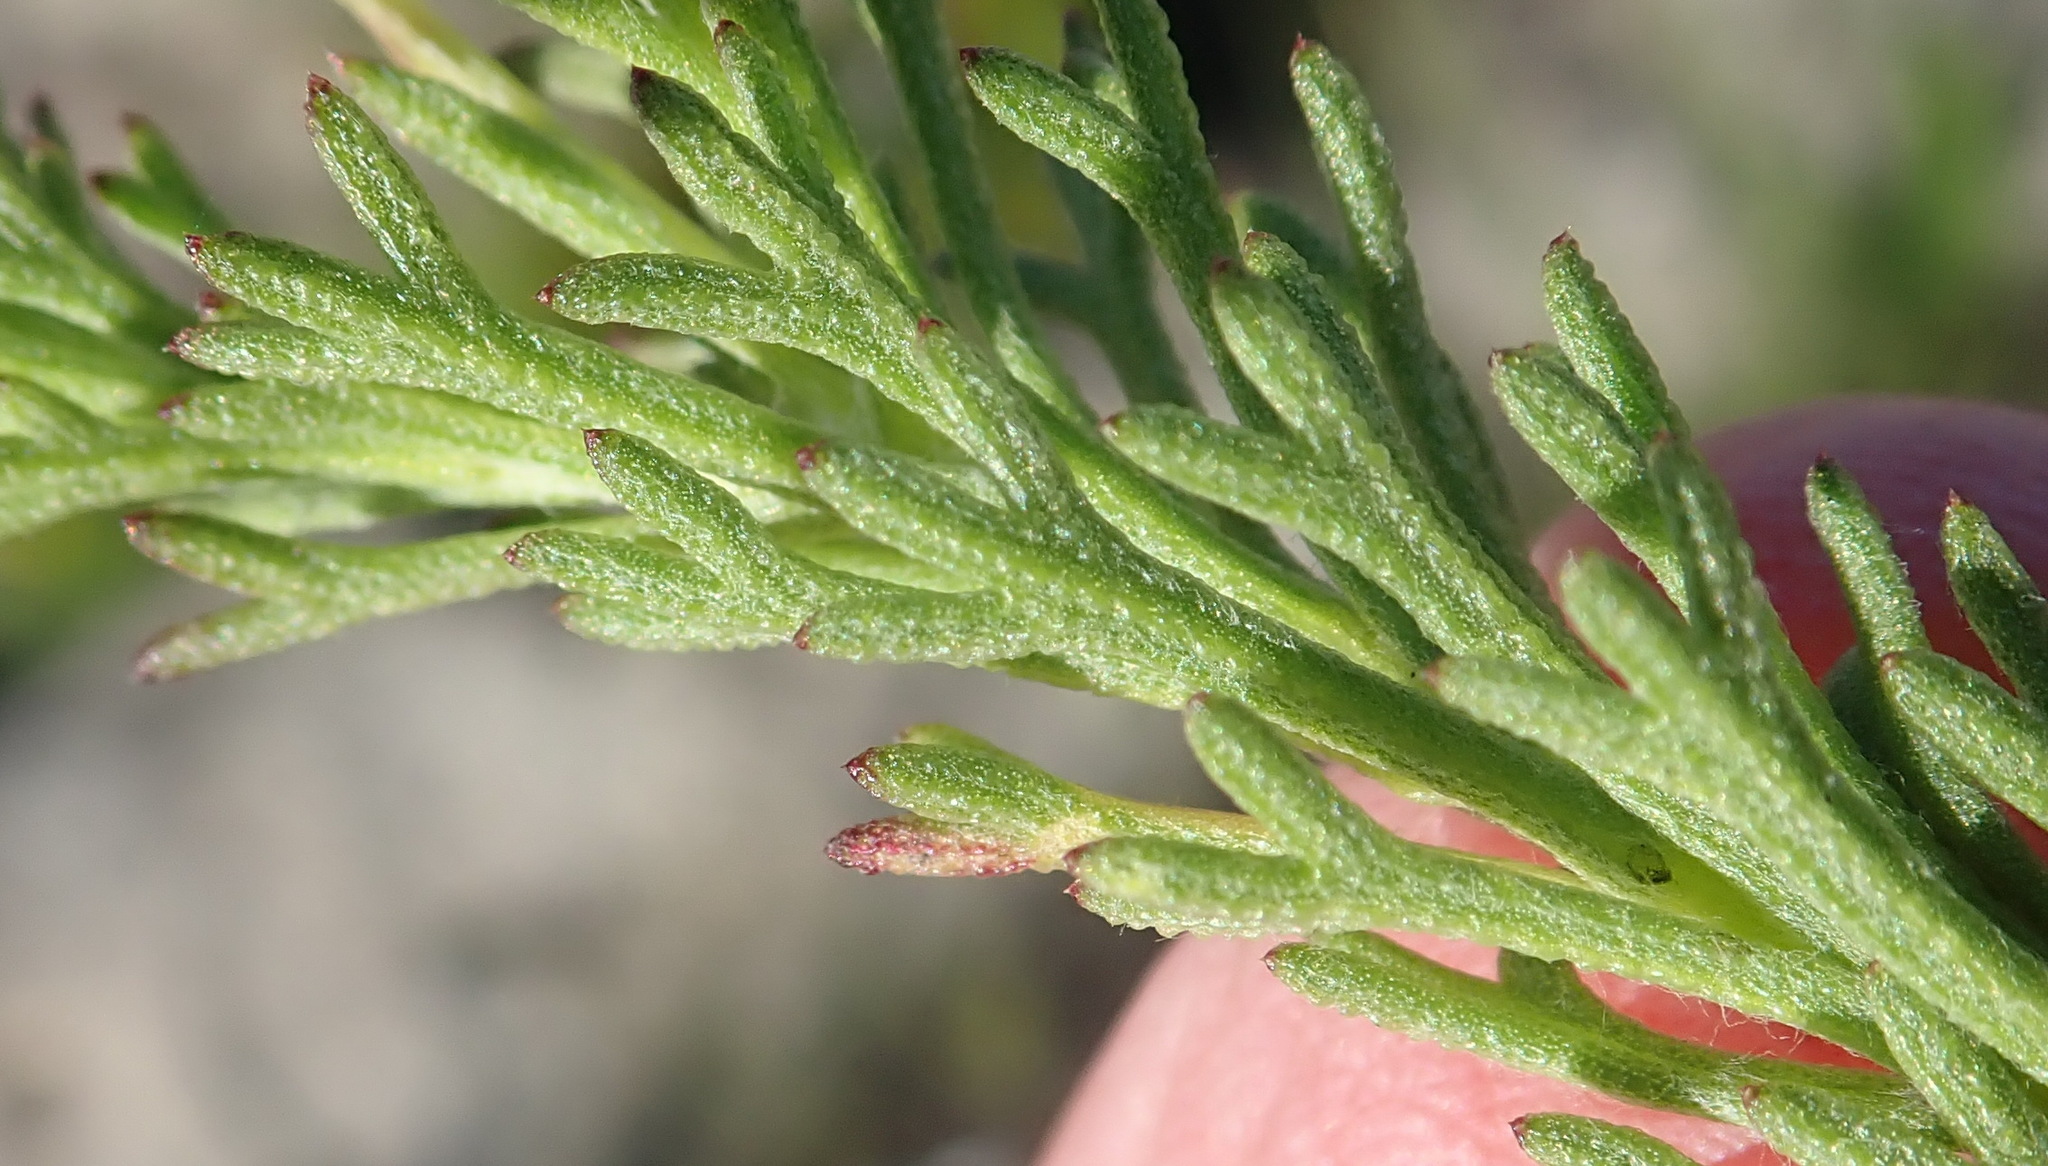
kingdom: Plantae
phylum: Tracheophyta
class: Magnoliopsida
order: Asterales
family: Asteraceae
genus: Ursinia
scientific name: Ursinia trifida
